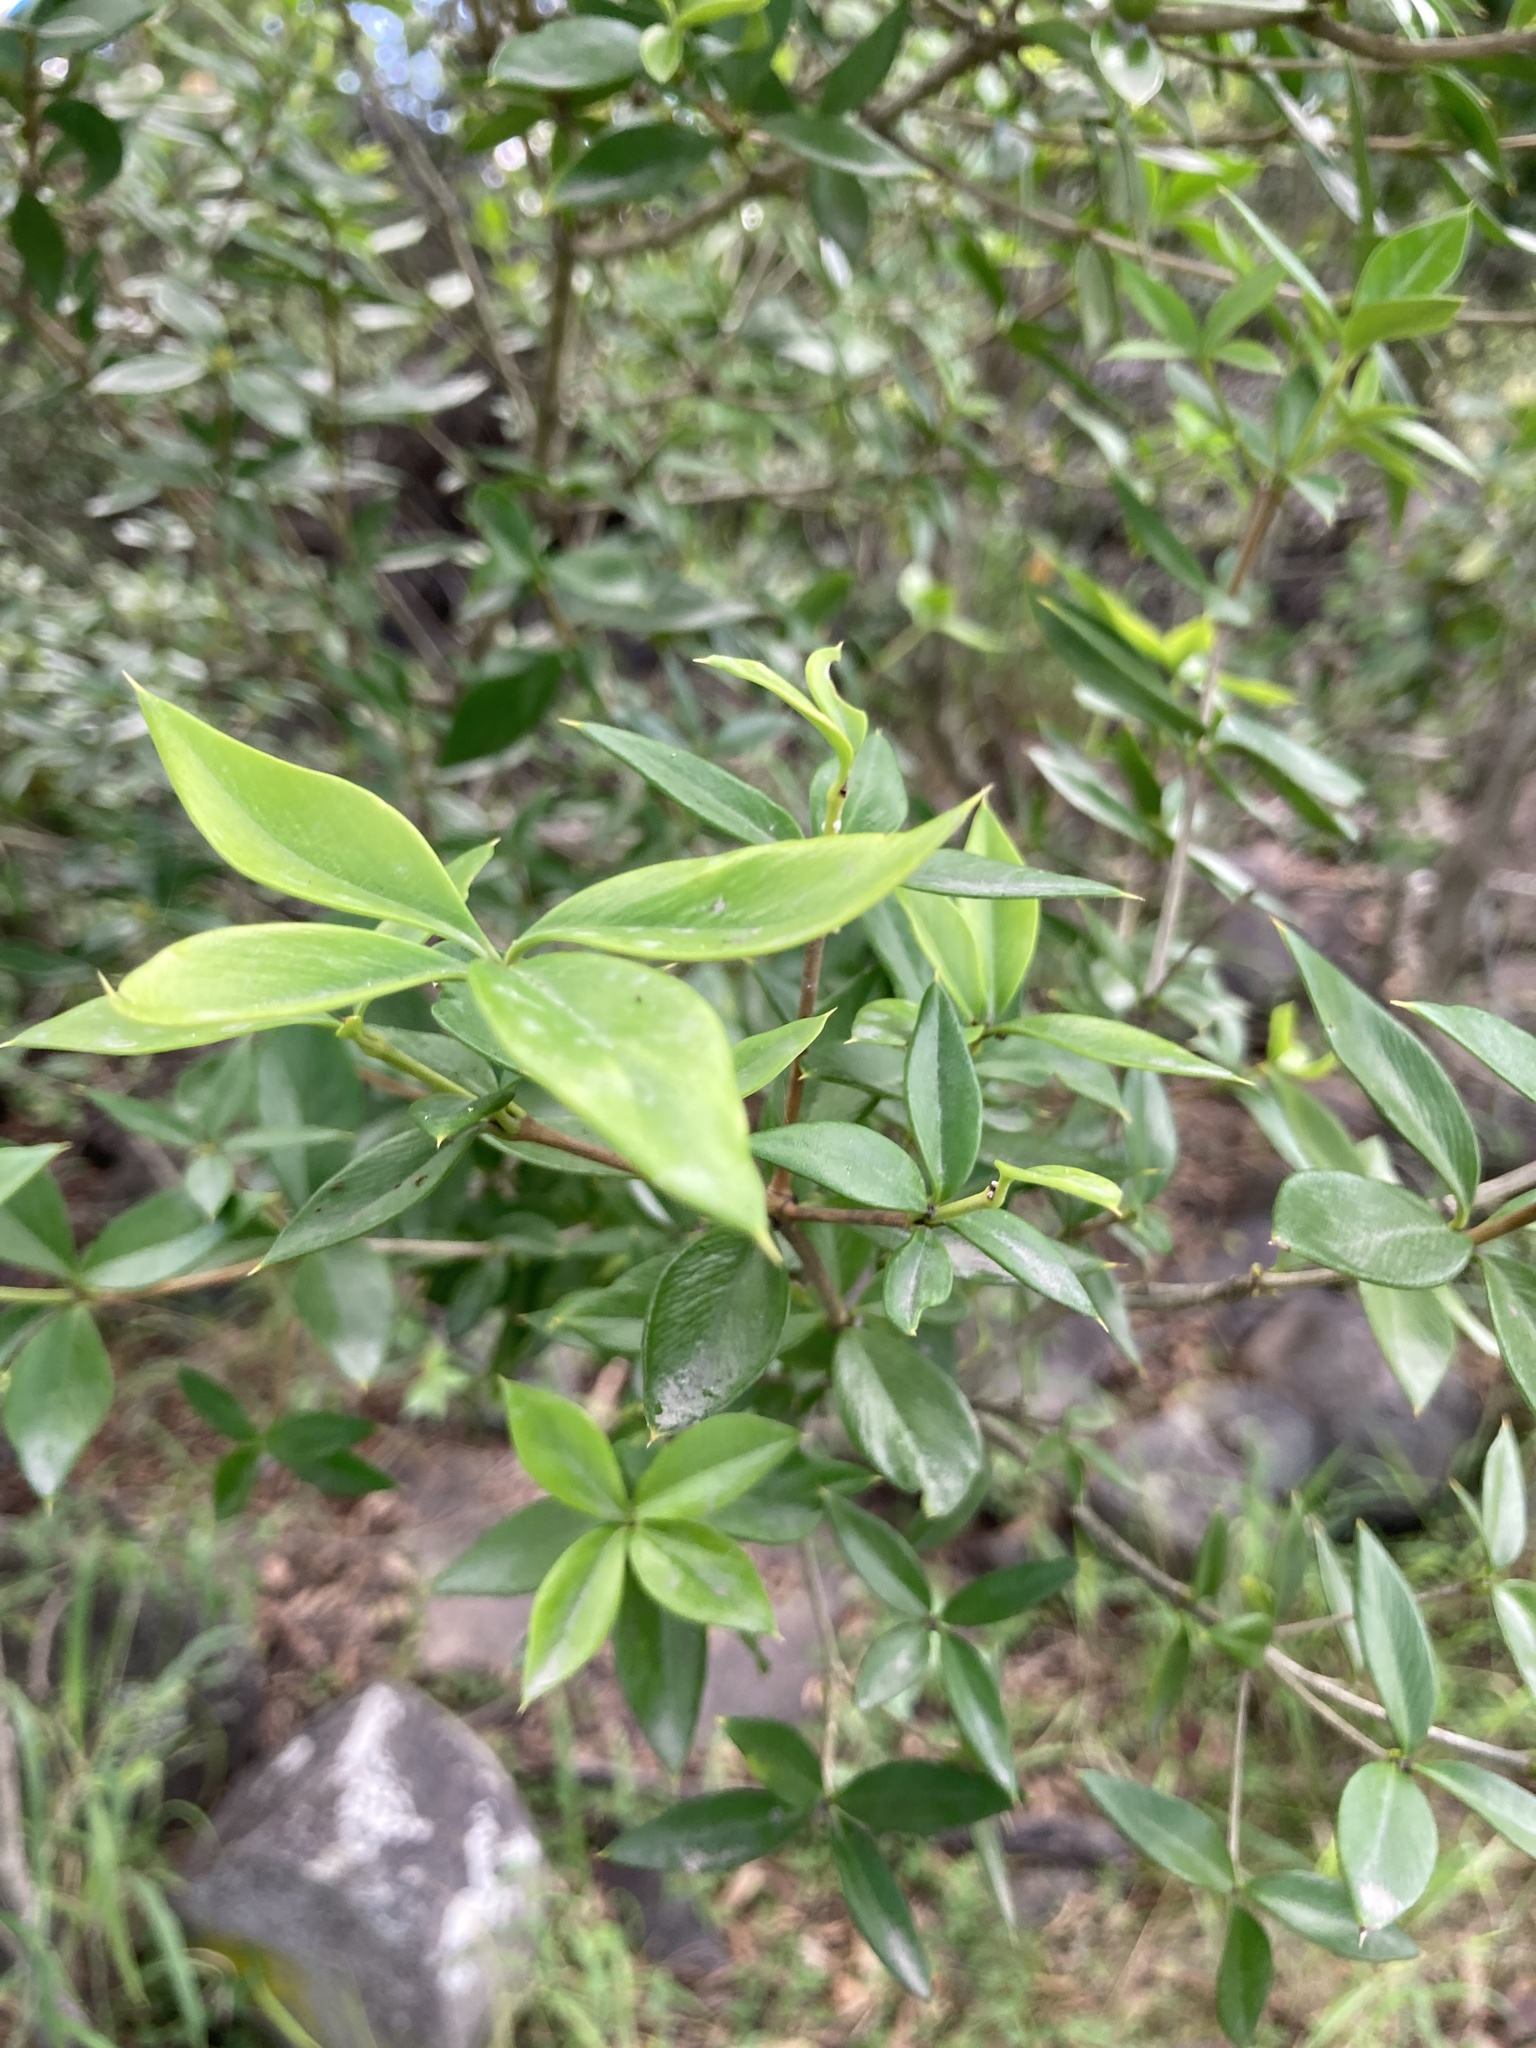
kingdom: Plantae
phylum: Tracheophyta
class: Magnoliopsida
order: Gentianales
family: Apocynaceae
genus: Alyxia
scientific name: Alyxia ruscifolia
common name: Chainfruit
